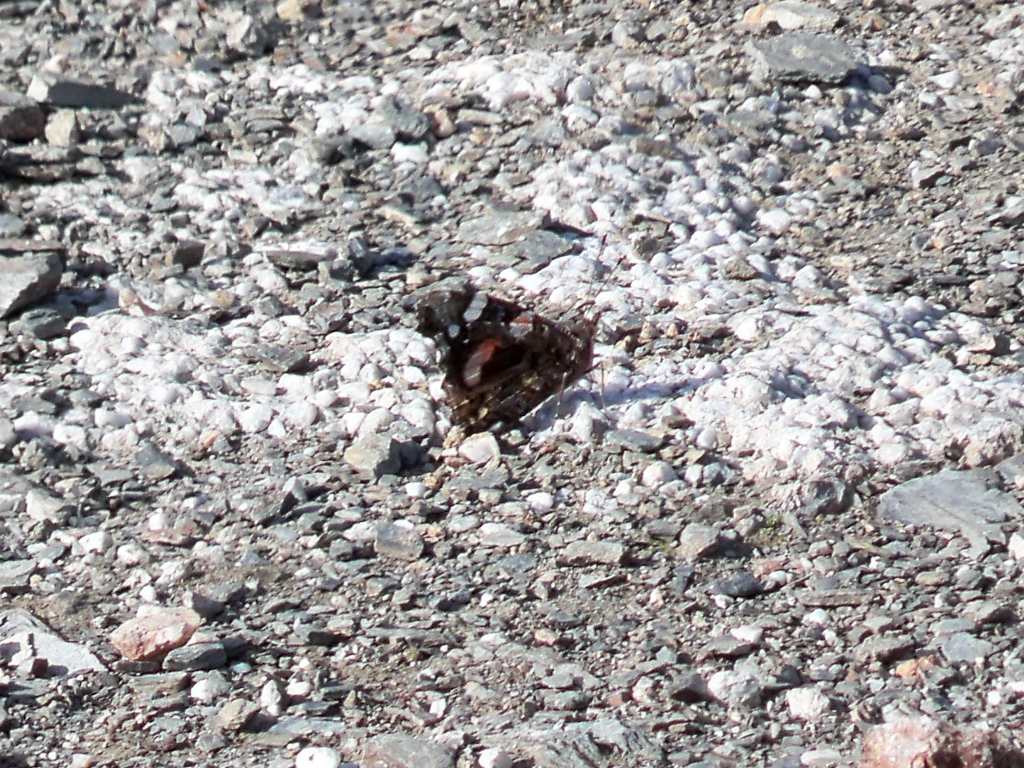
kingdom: Animalia
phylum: Arthropoda
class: Insecta
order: Lepidoptera
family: Nymphalidae
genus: Vanessa
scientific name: Vanessa atalanta
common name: Red admiral
